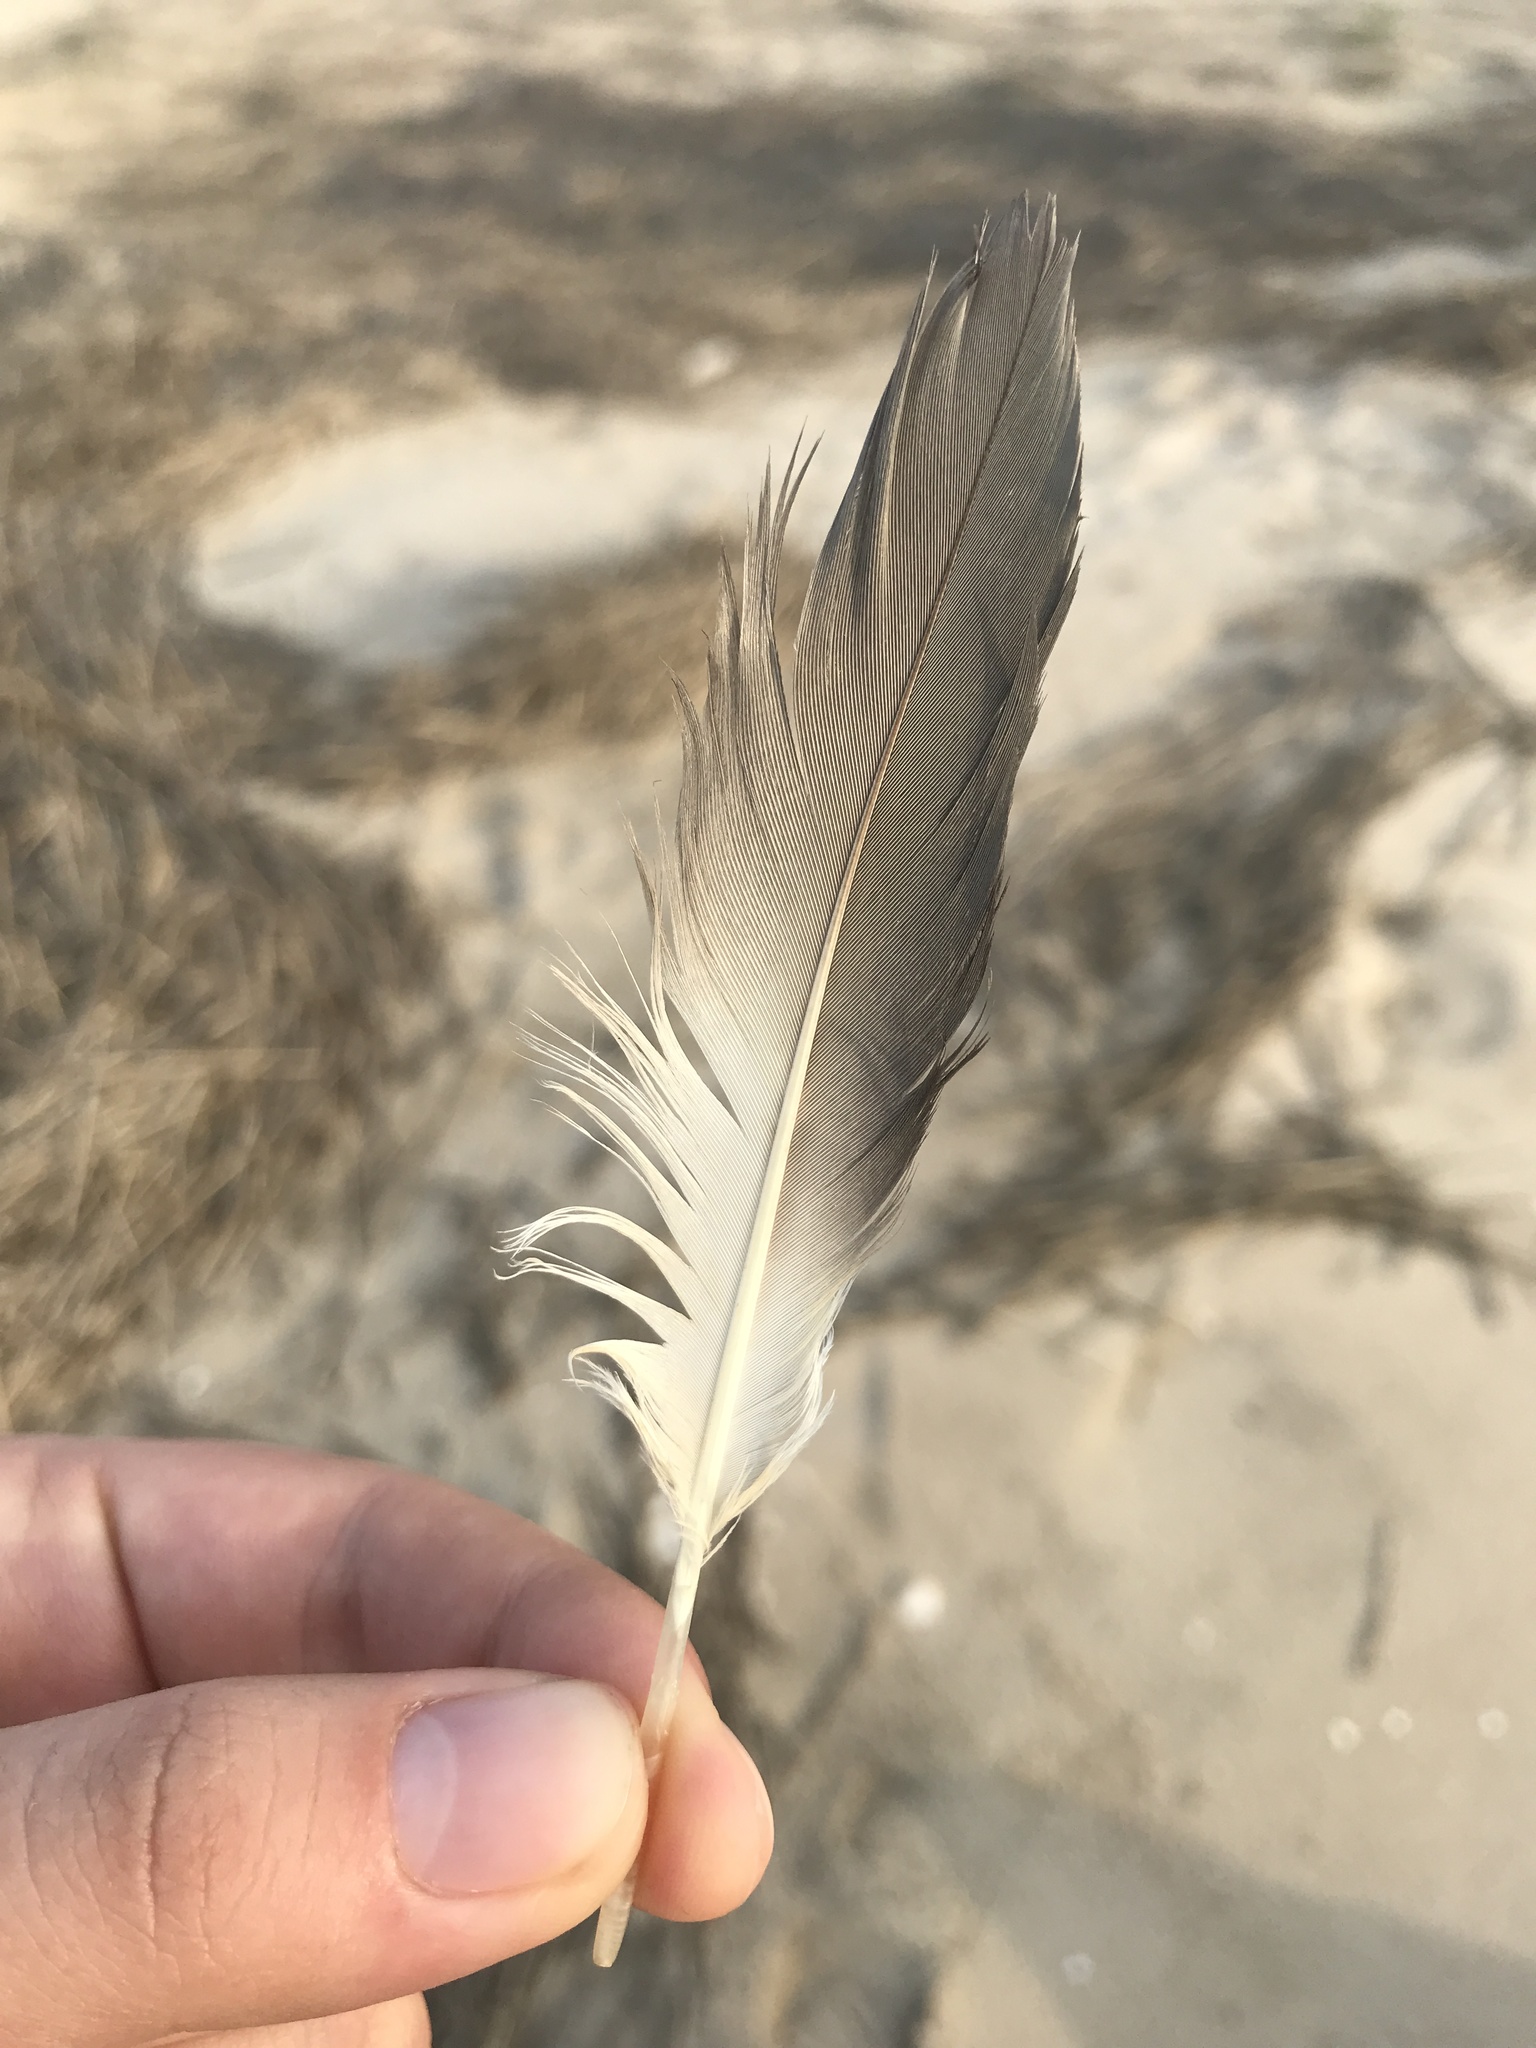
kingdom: Animalia
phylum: Chordata
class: Aves
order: Suliformes
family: Sulidae
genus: Morus
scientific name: Morus bassanus
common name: Northern gannet
